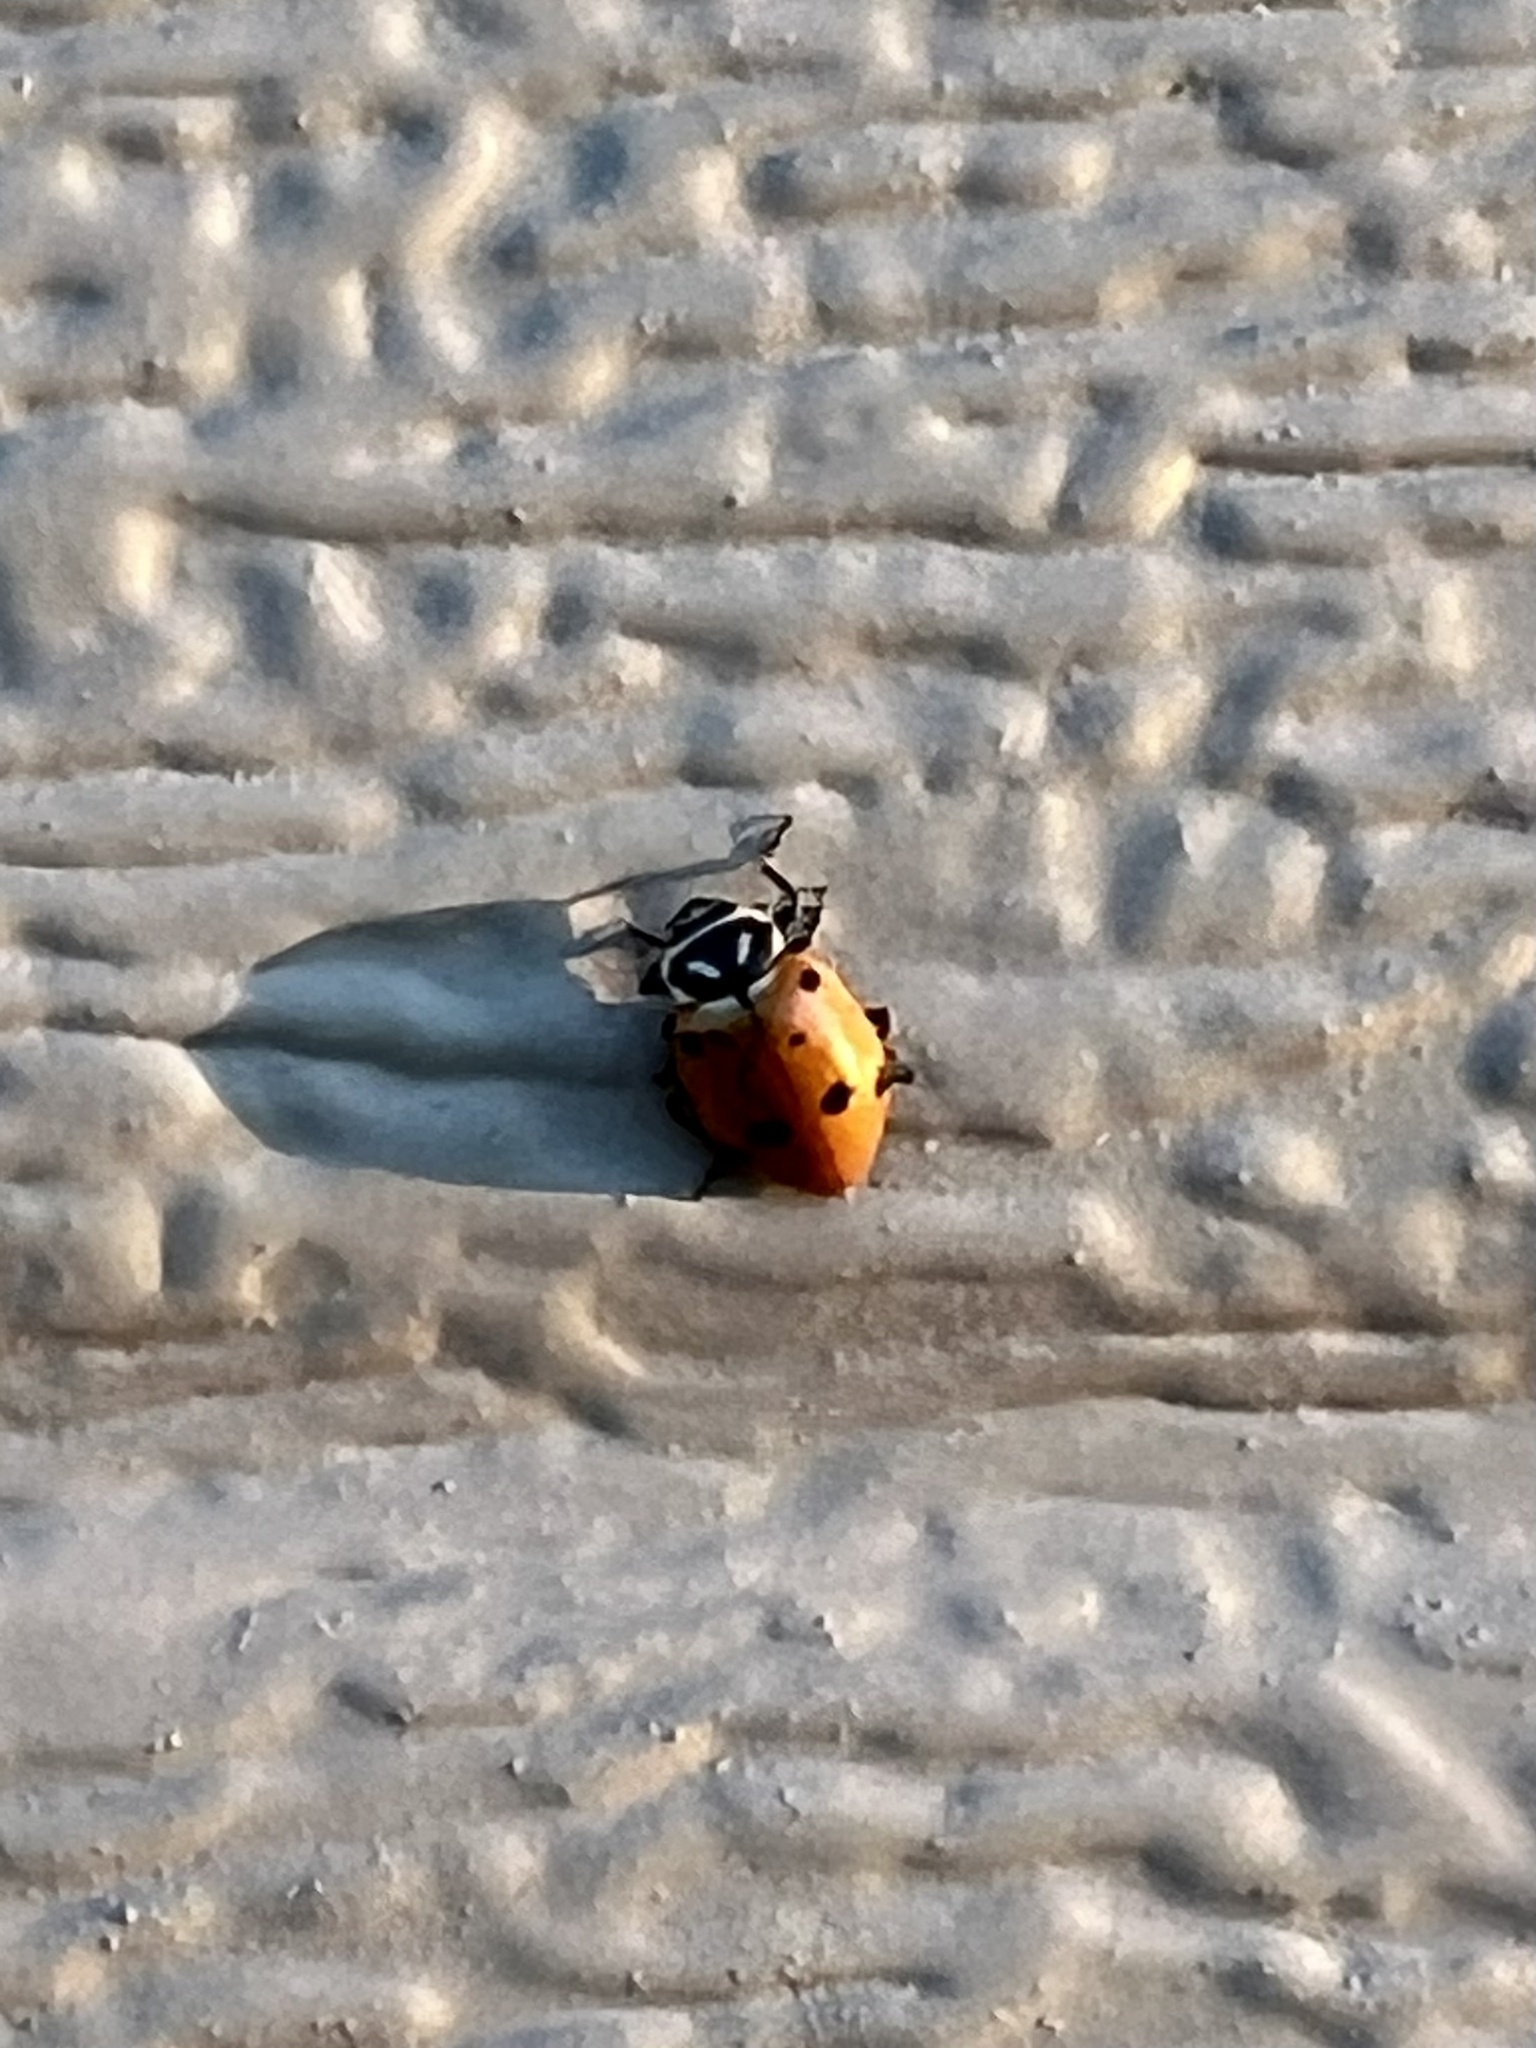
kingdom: Animalia
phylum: Arthropoda
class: Insecta
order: Coleoptera
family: Coccinellidae
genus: Hippodamia
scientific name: Hippodamia convergens
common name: Convergent lady beetle
